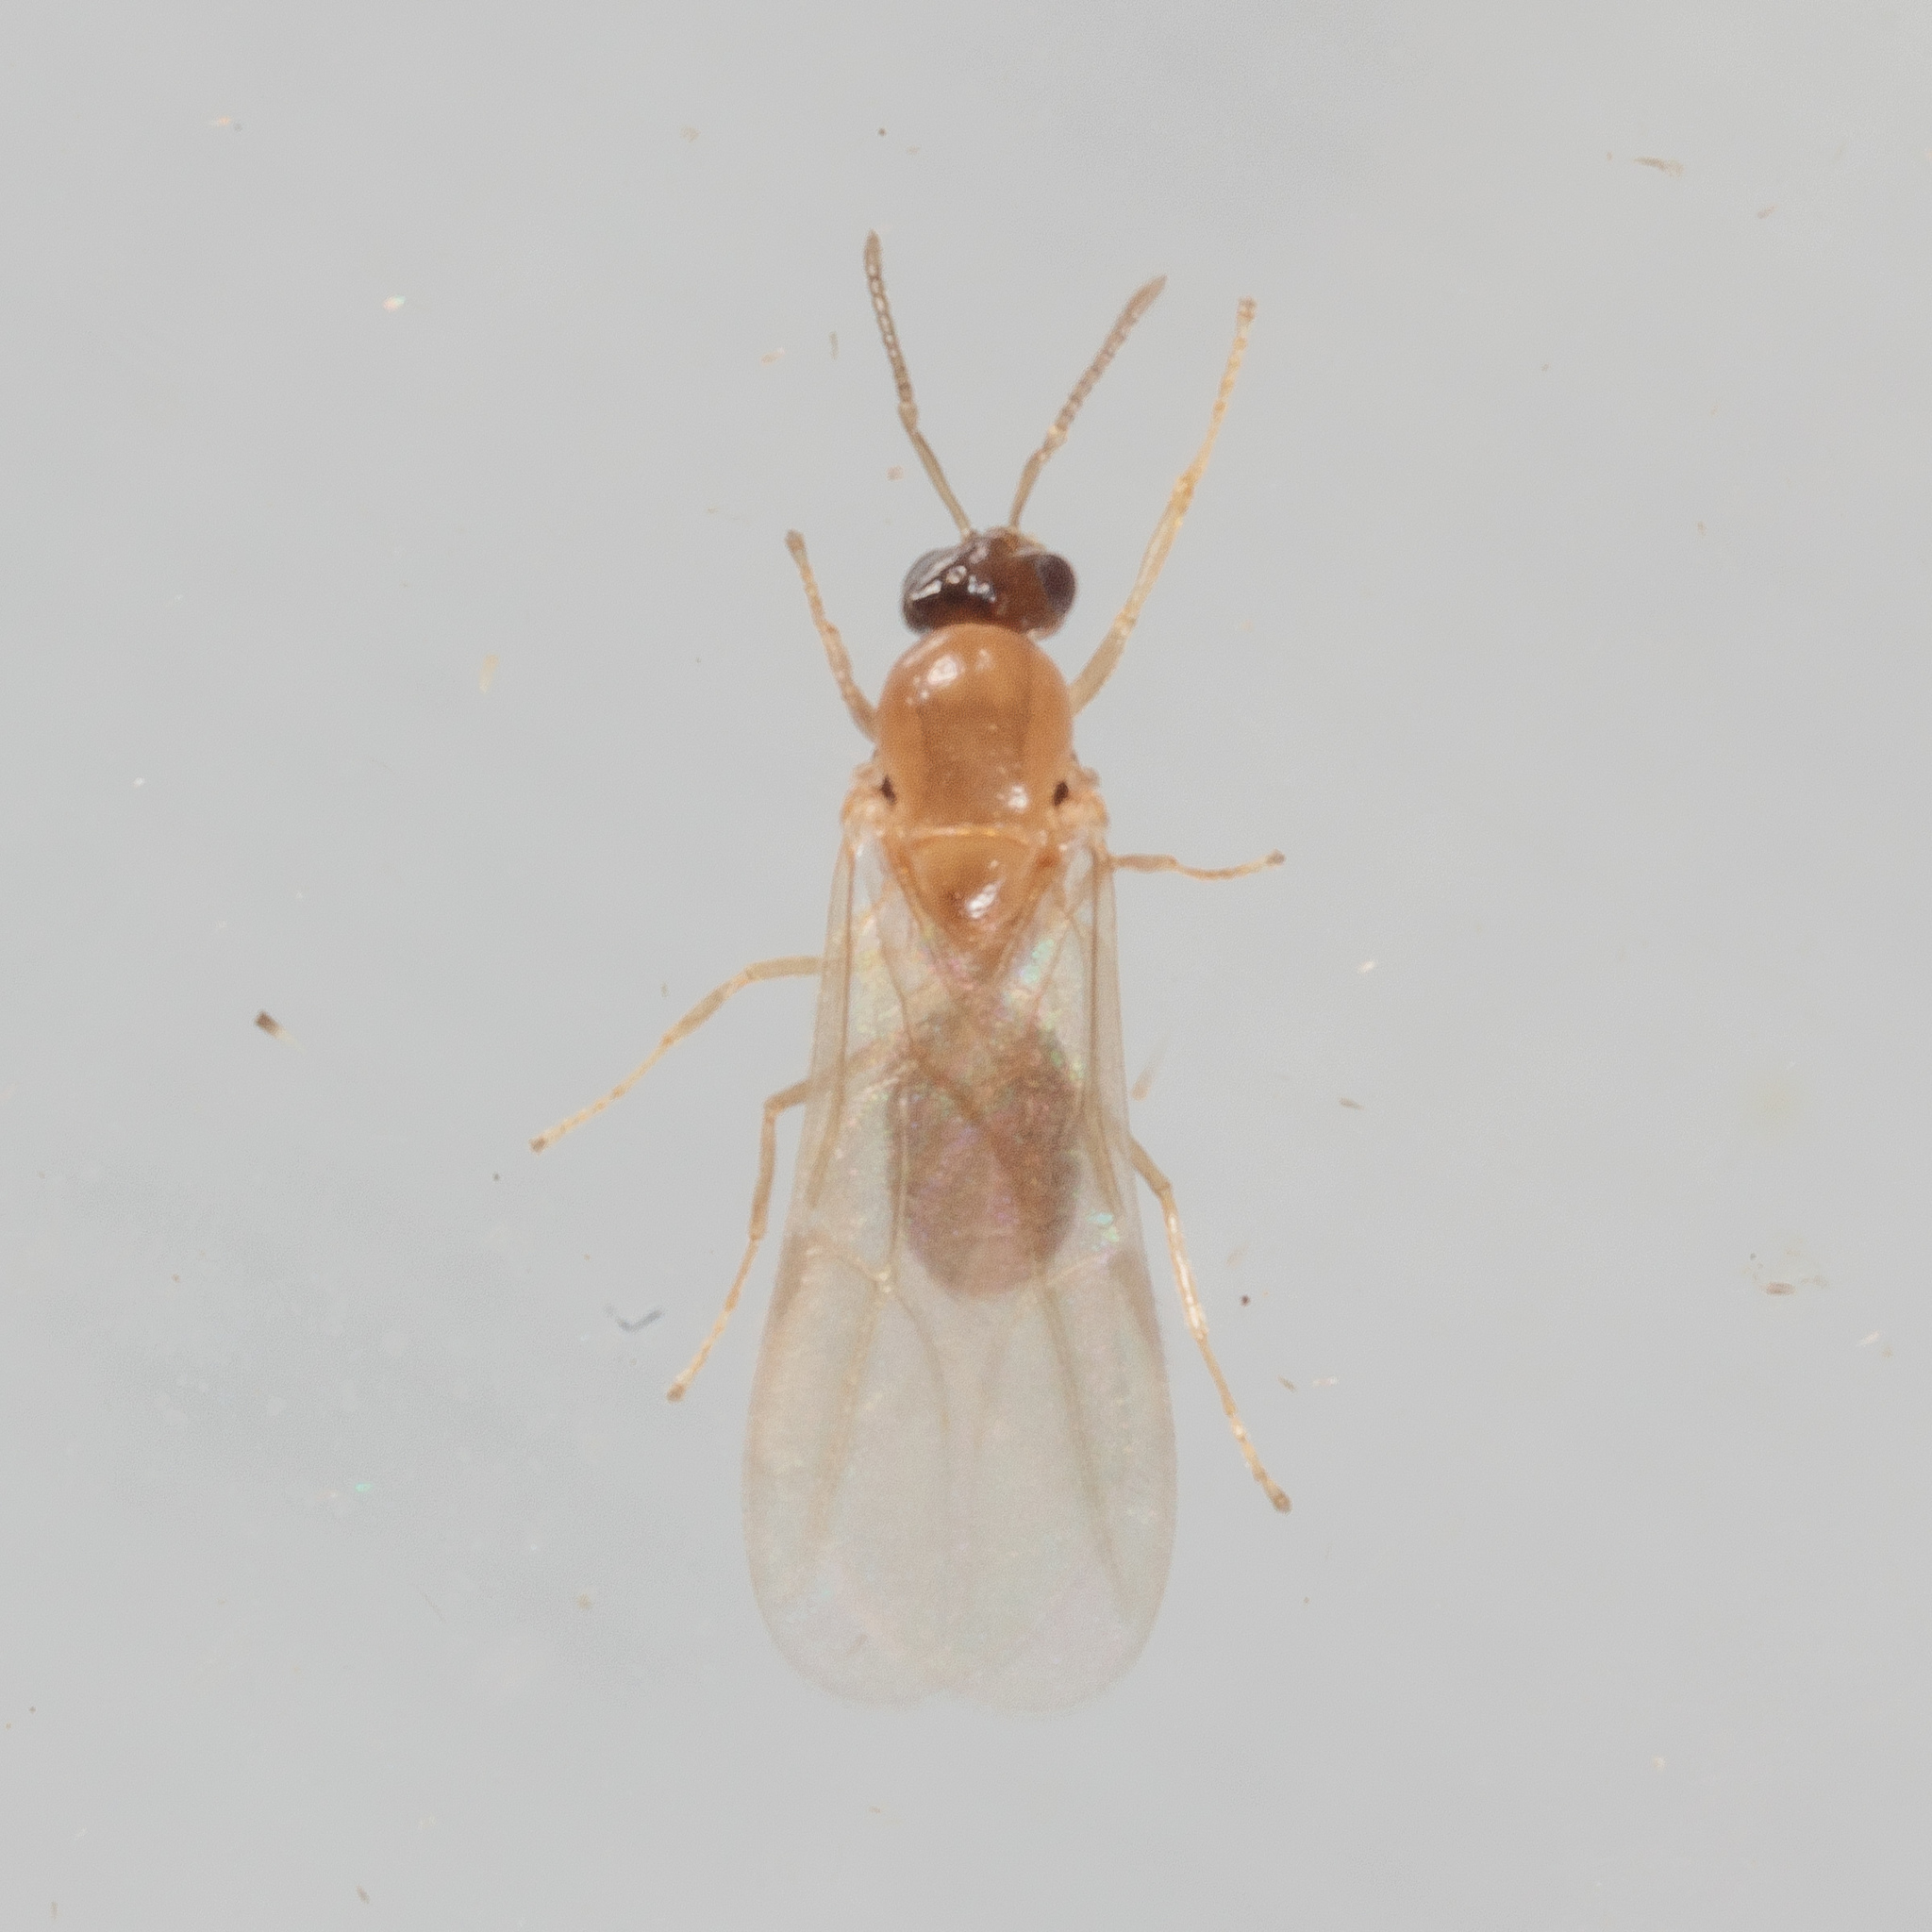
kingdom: Animalia
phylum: Arthropoda
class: Insecta
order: Hymenoptera
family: Formicidae
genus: Brachymyrmex
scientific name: Brachymyrmex patagonicus
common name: Dark rover ant
